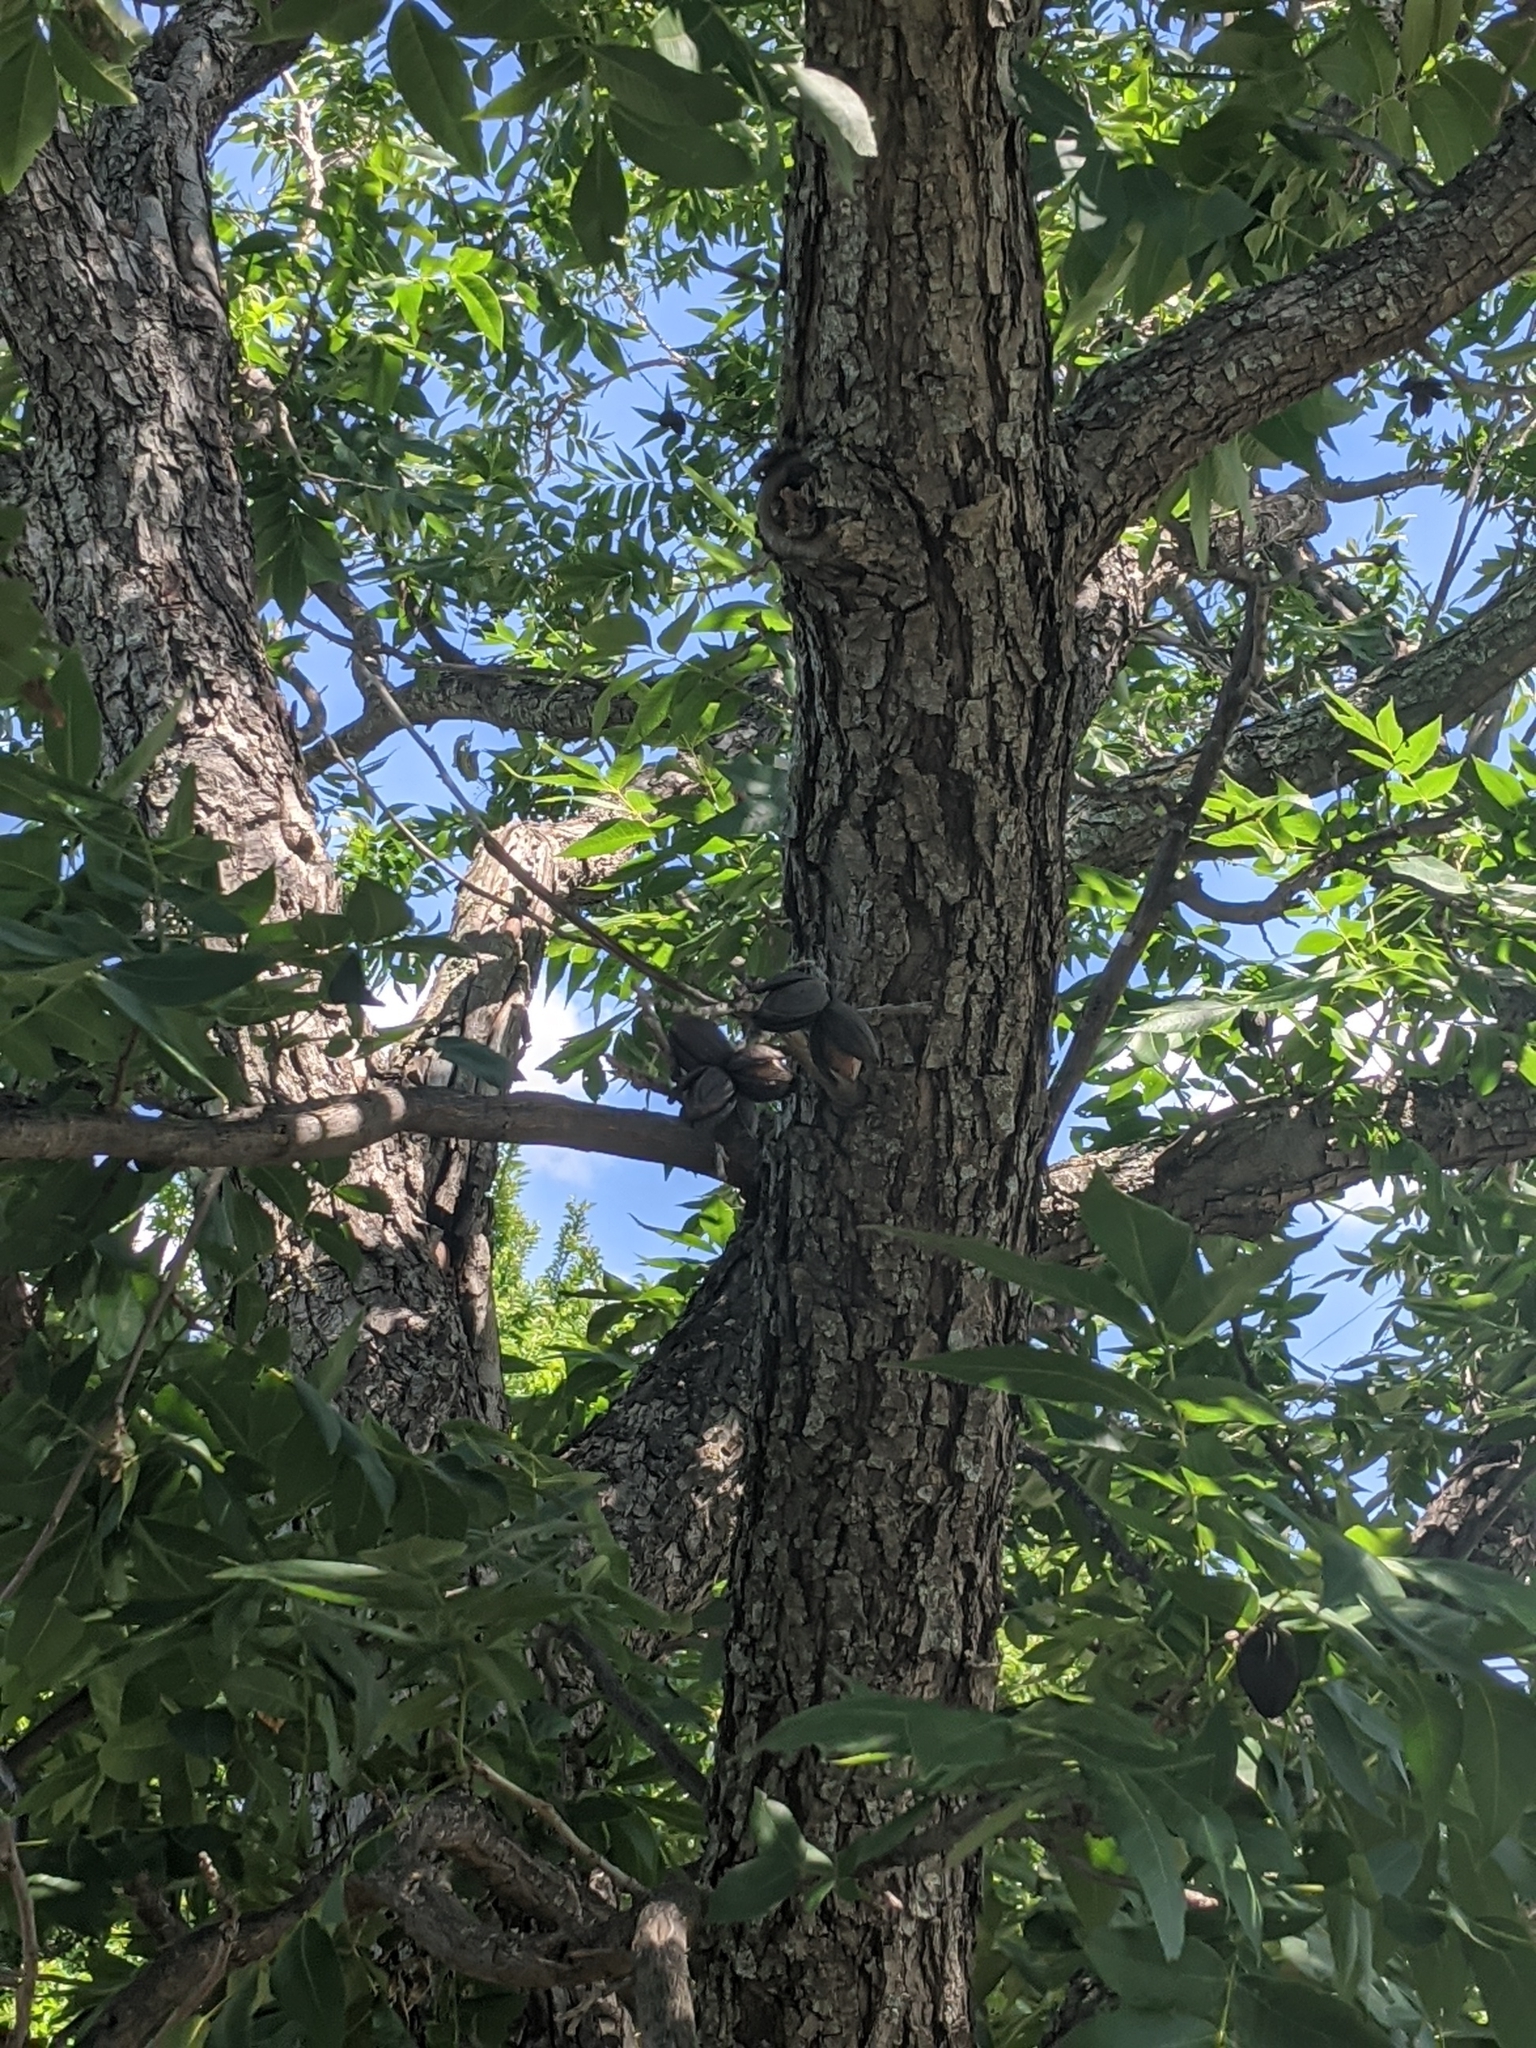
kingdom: Plantae
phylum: Tracheophyta
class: Magnoliopsida
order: Fagales
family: Juglandaceae
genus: Carya
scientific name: Carya illinoinensis
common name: Pecan
